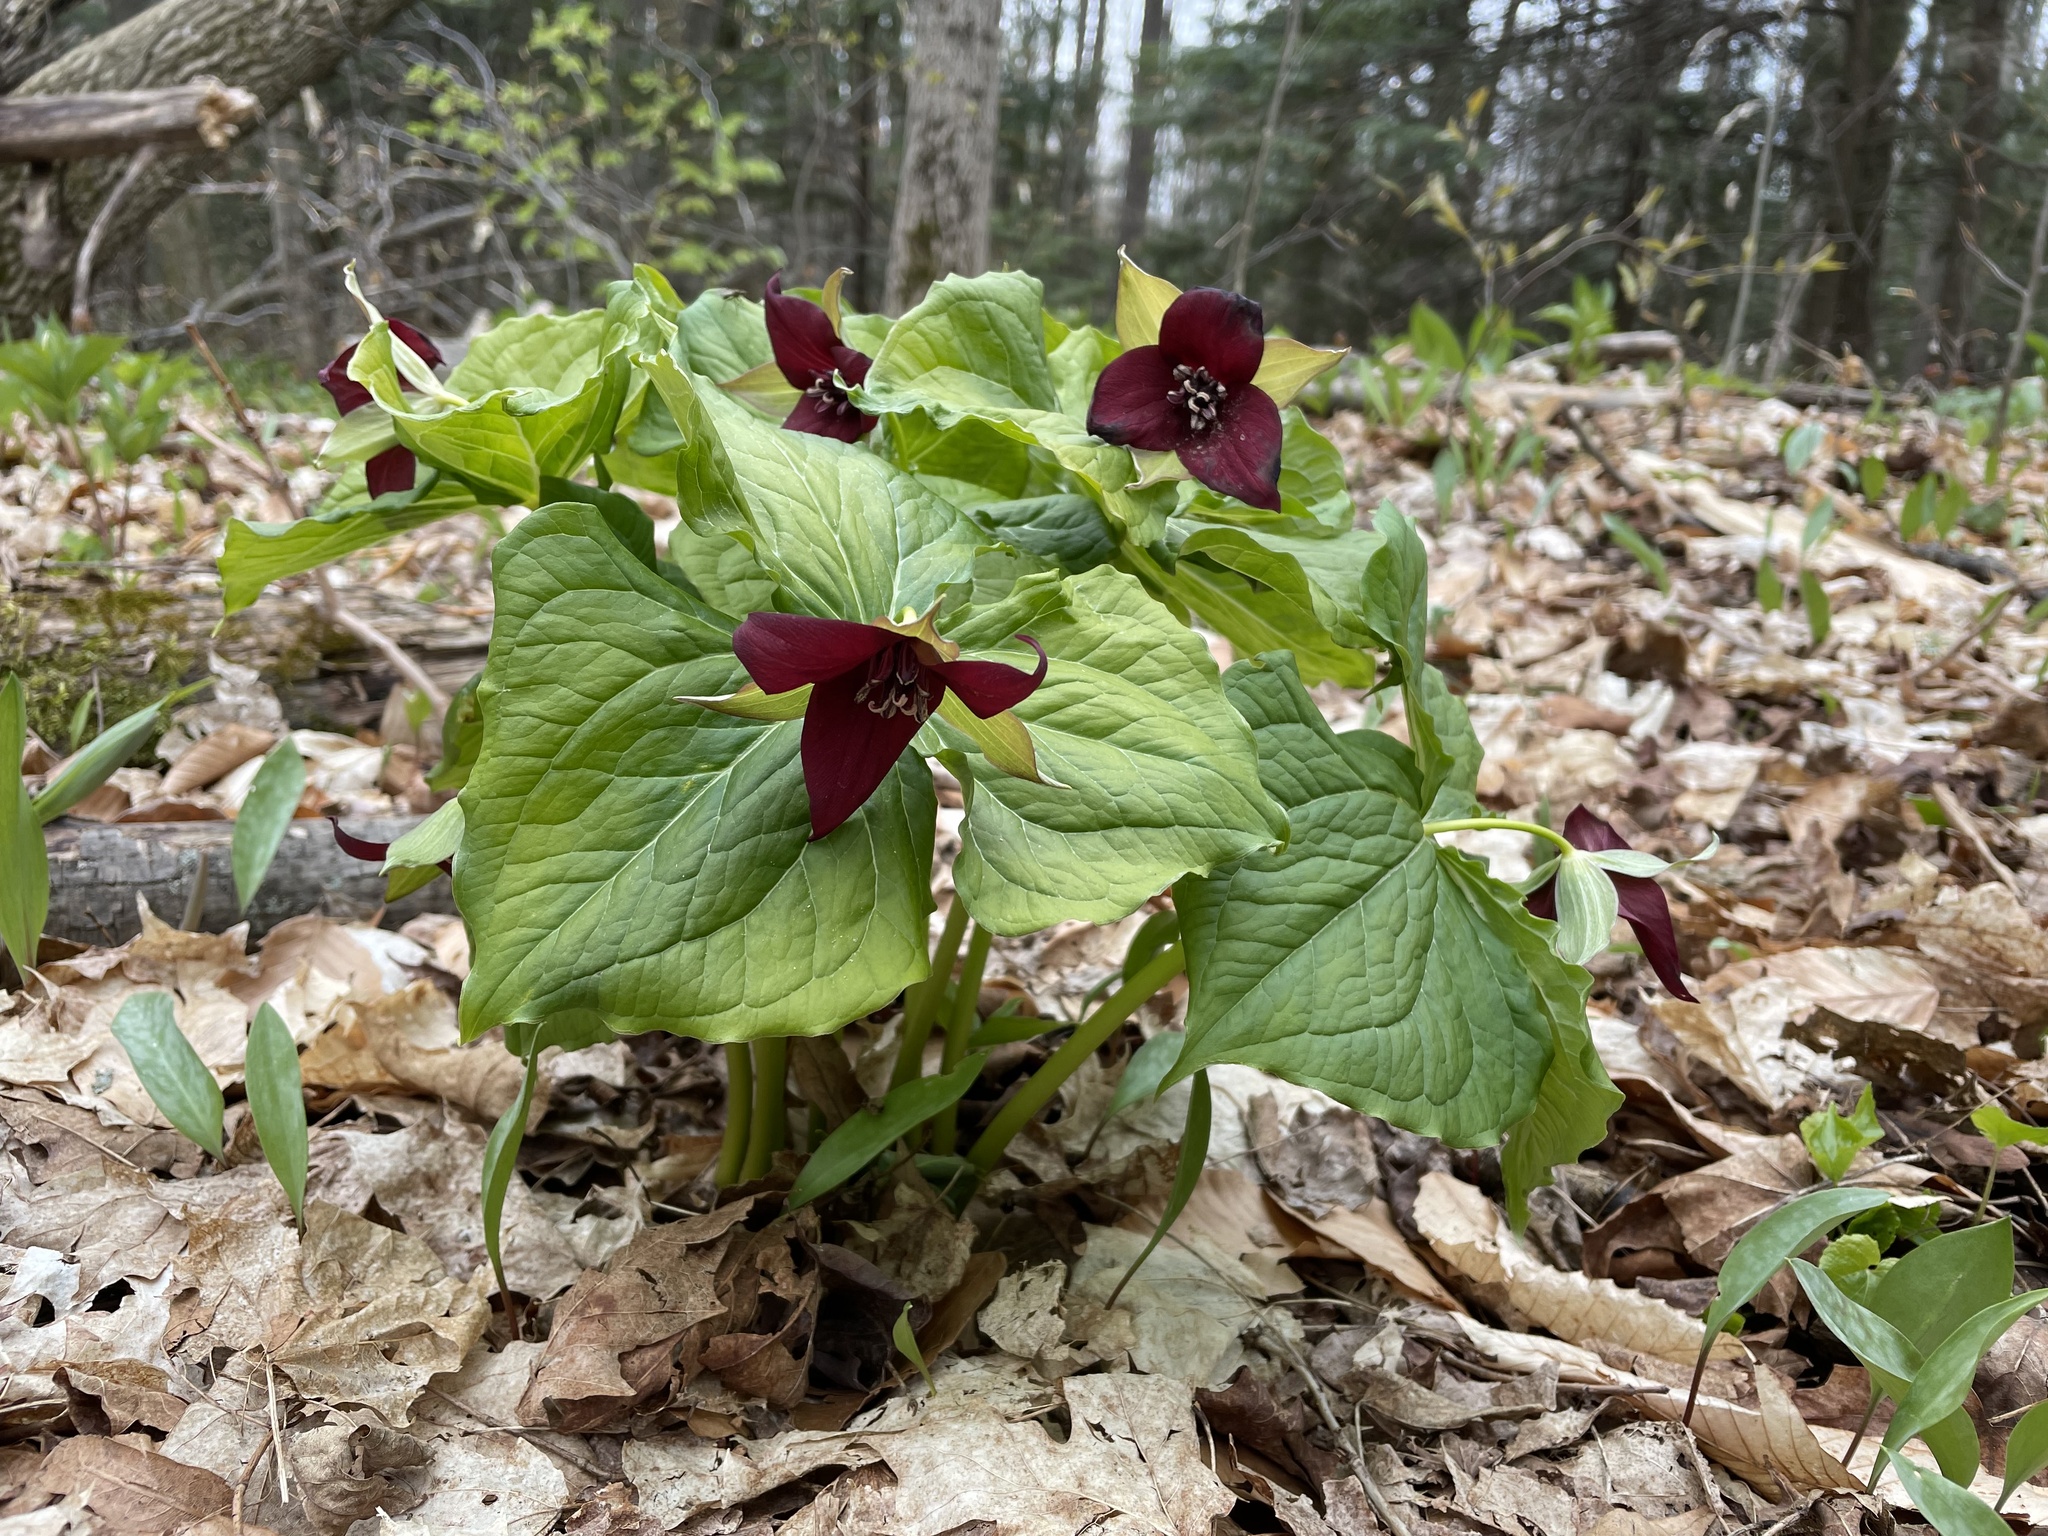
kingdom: Plantae
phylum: Tracheophyta
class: Liliopsida
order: Liliales
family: Melanthiaceae
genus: Trillium
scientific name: Trillium erectum
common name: Purple trillium
